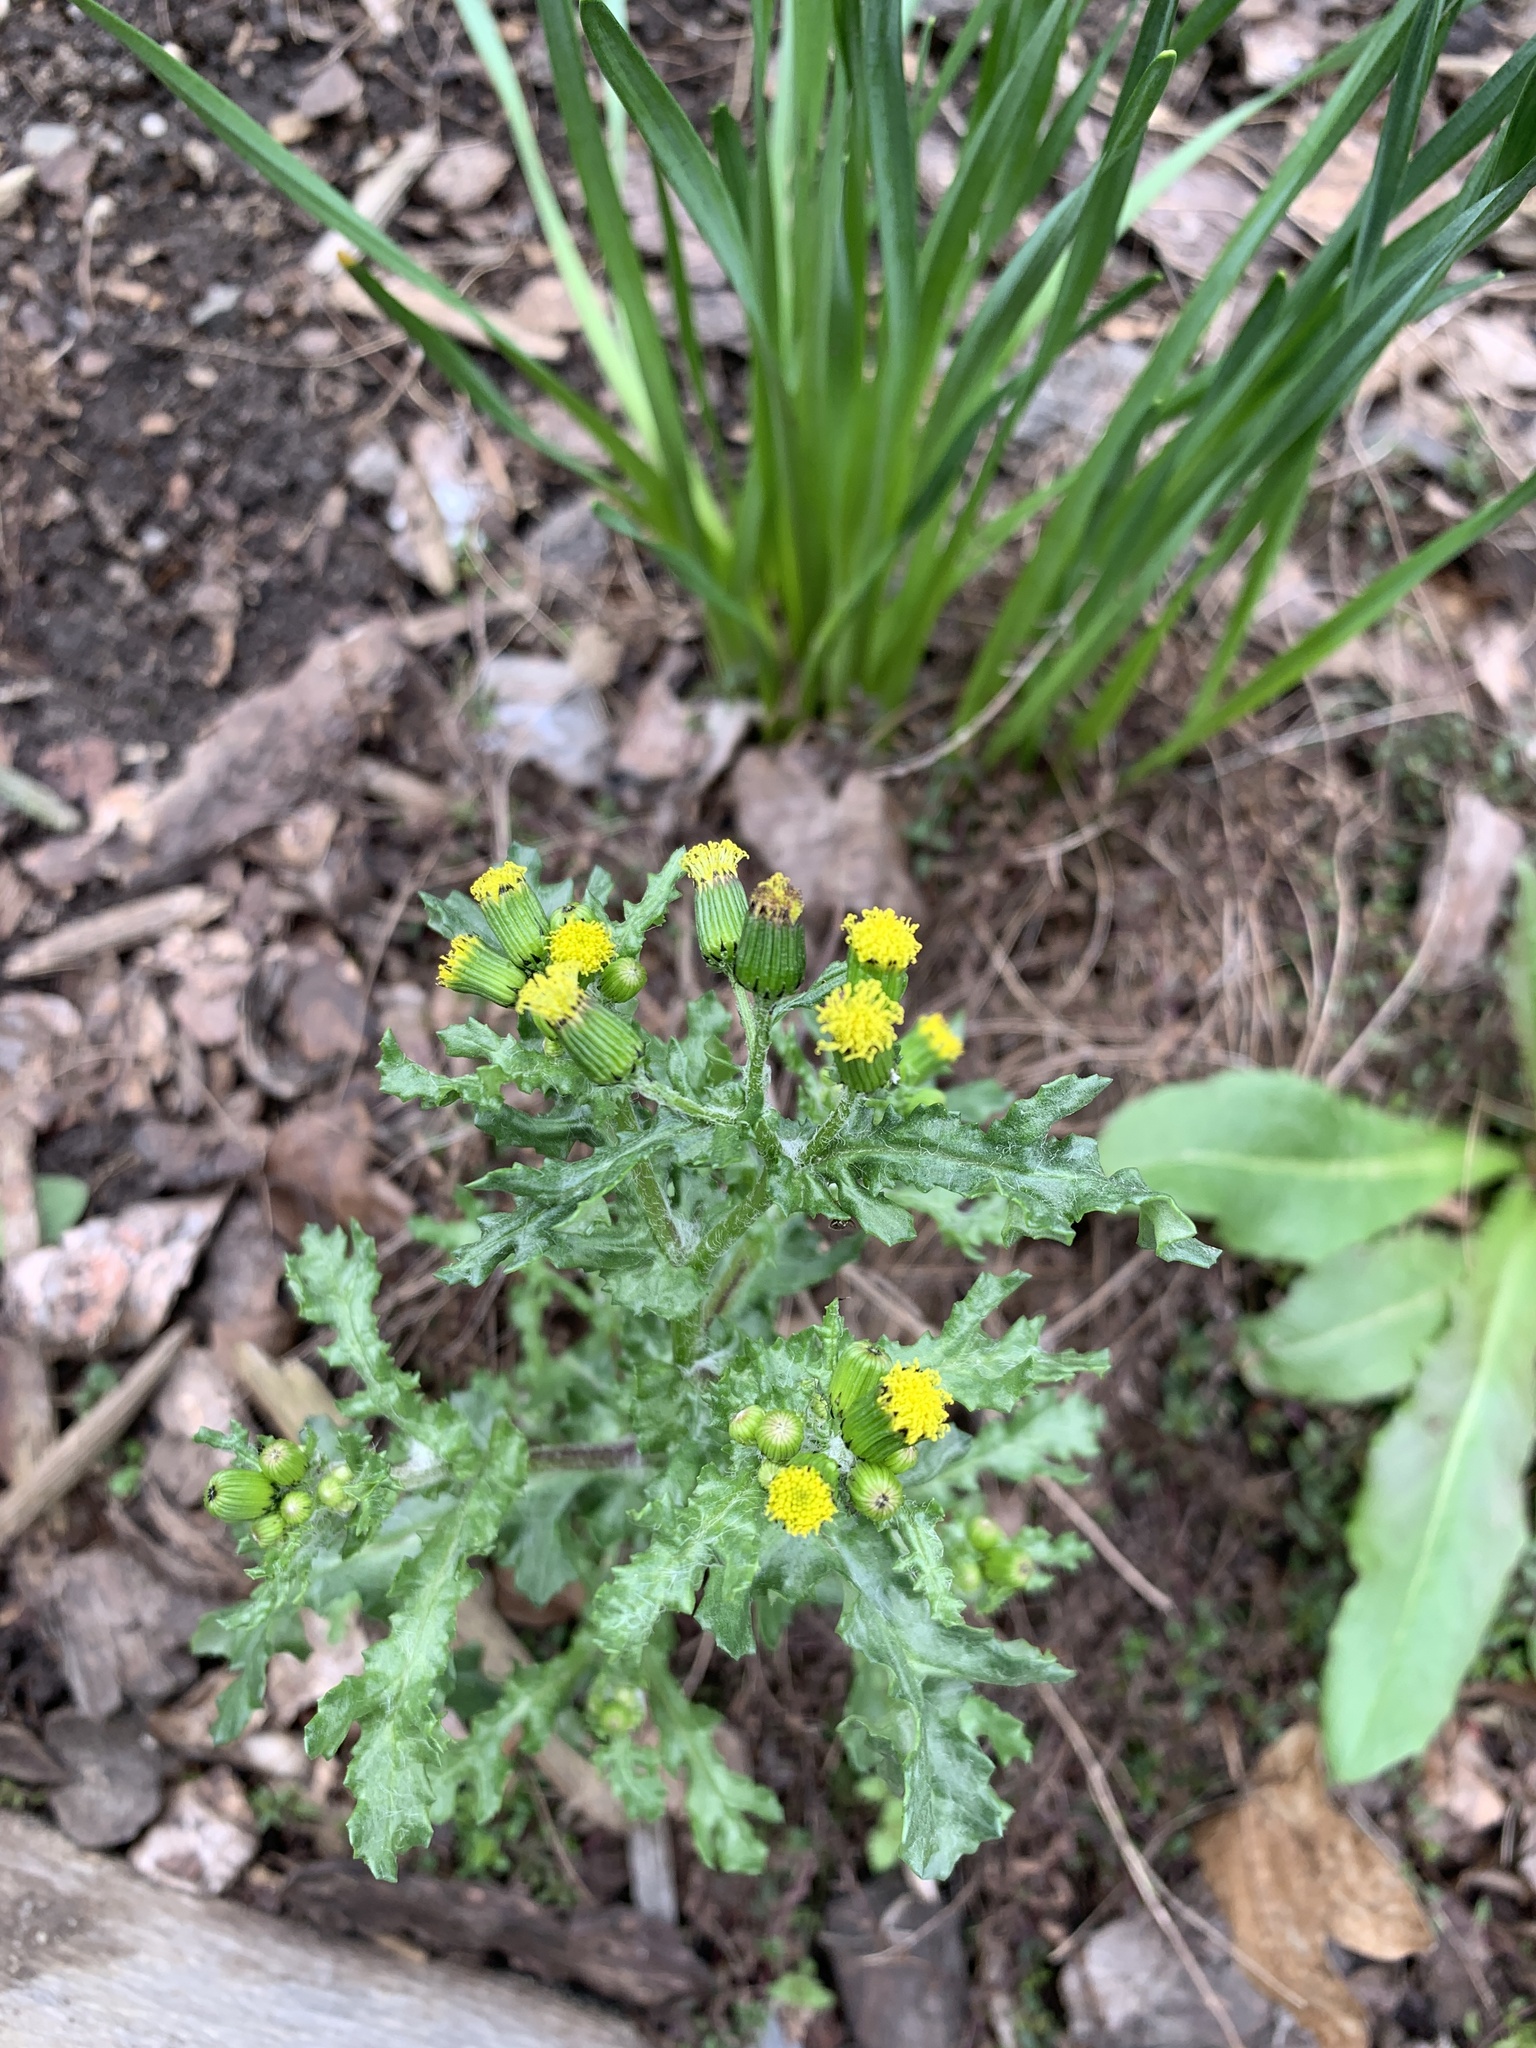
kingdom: Plantae
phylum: Tracheophyta
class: Magnoliopsida
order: Asterales
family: Asteraceae
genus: Senecio
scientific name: Senecio vulgaris
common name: Old-man-in-the-spring
